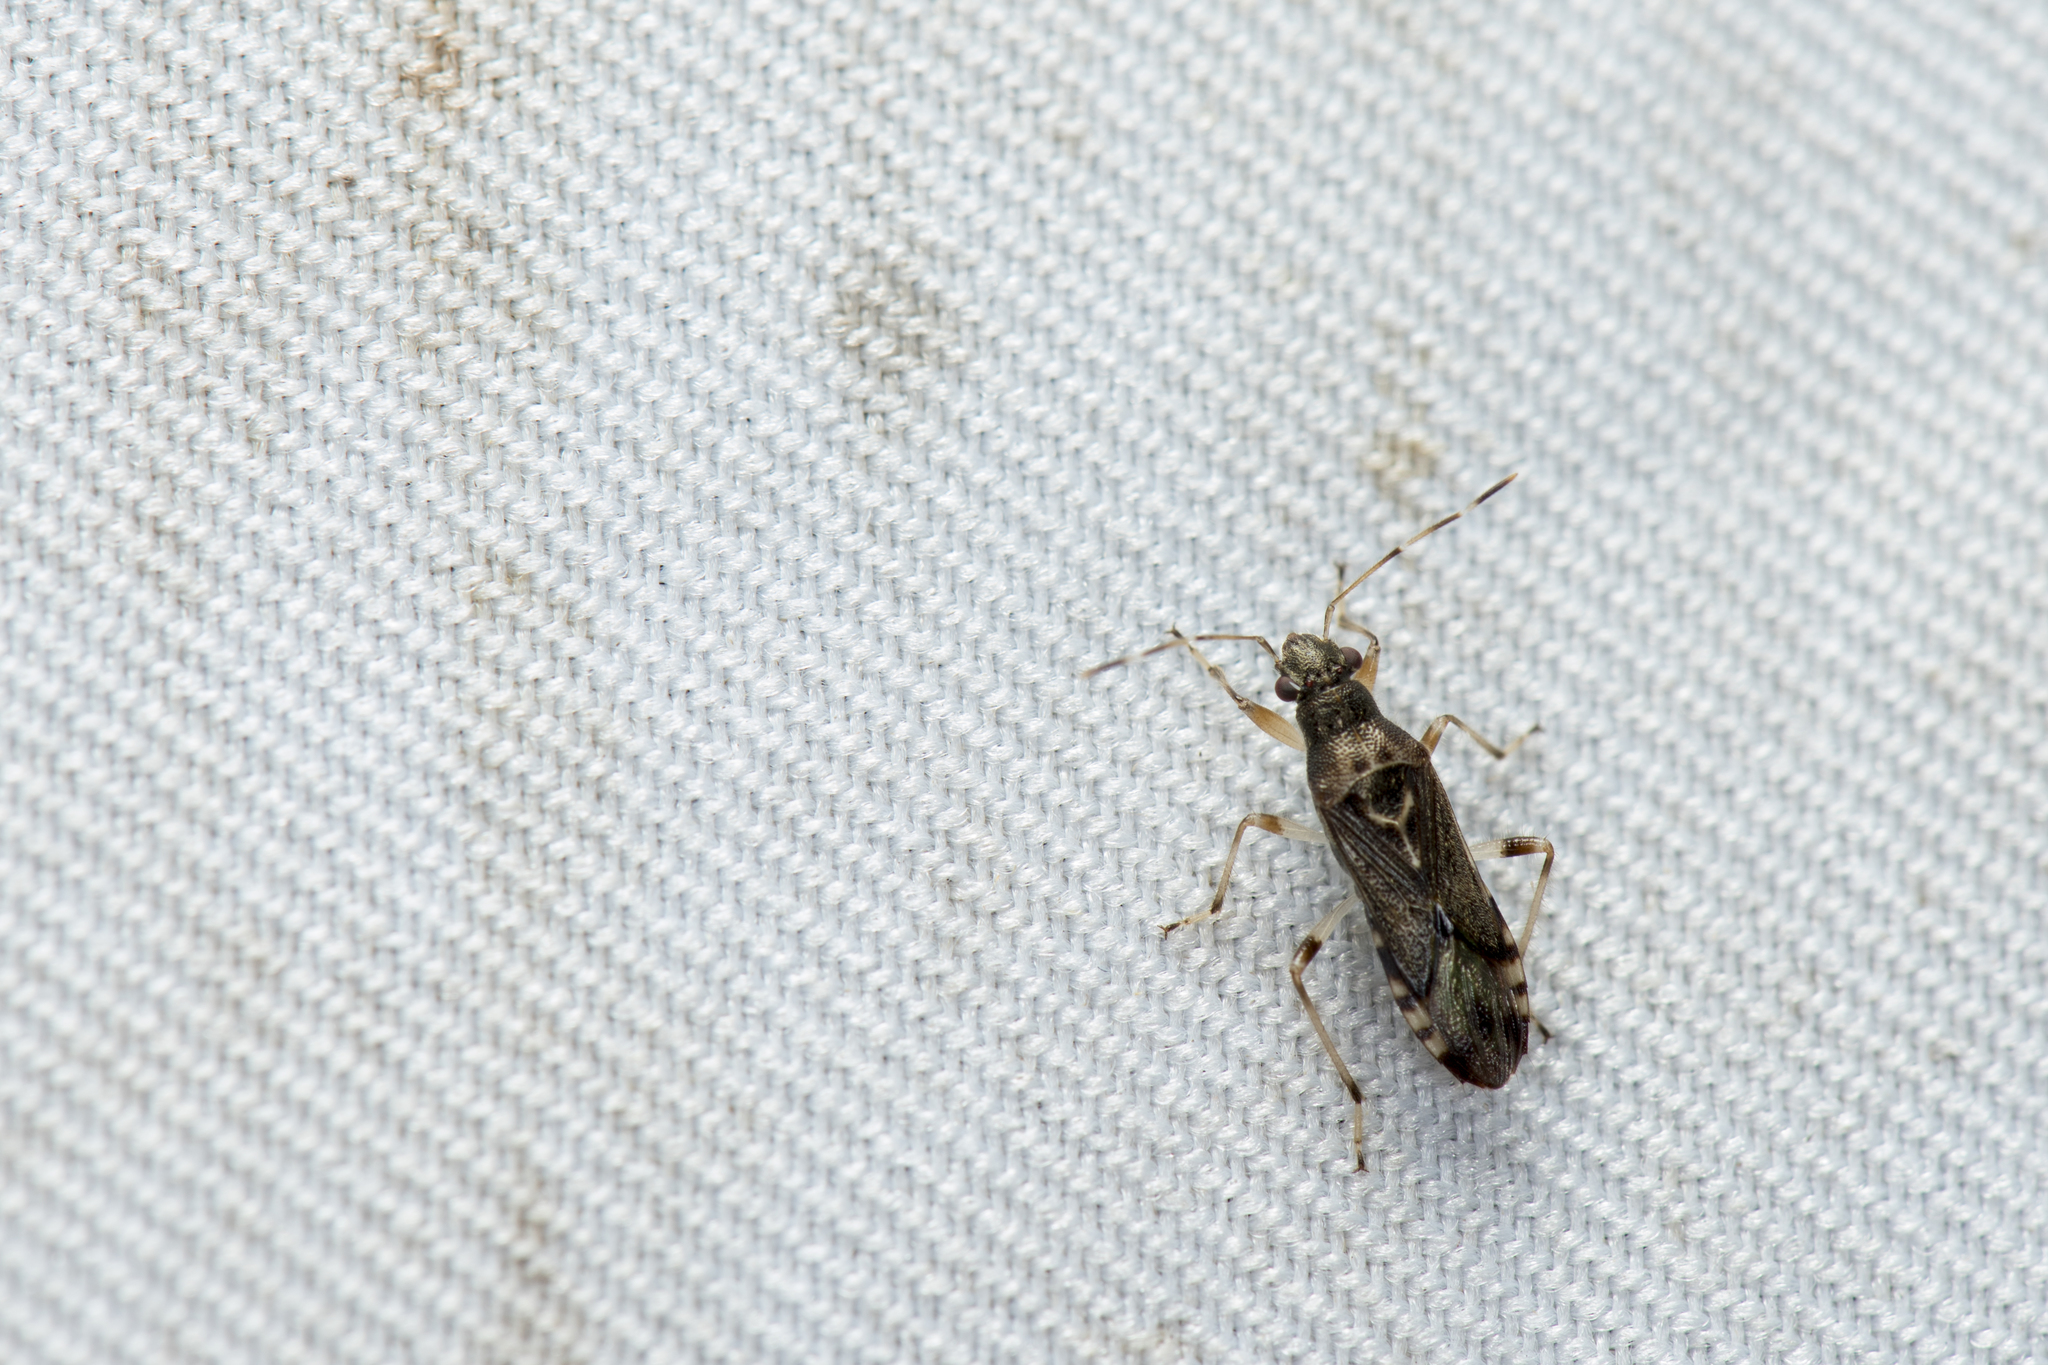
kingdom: Animalia
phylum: Arthropoda
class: Insecta
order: Hemiptera
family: Heterogastridae
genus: Parathyginus
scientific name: Parathyginus signifer
